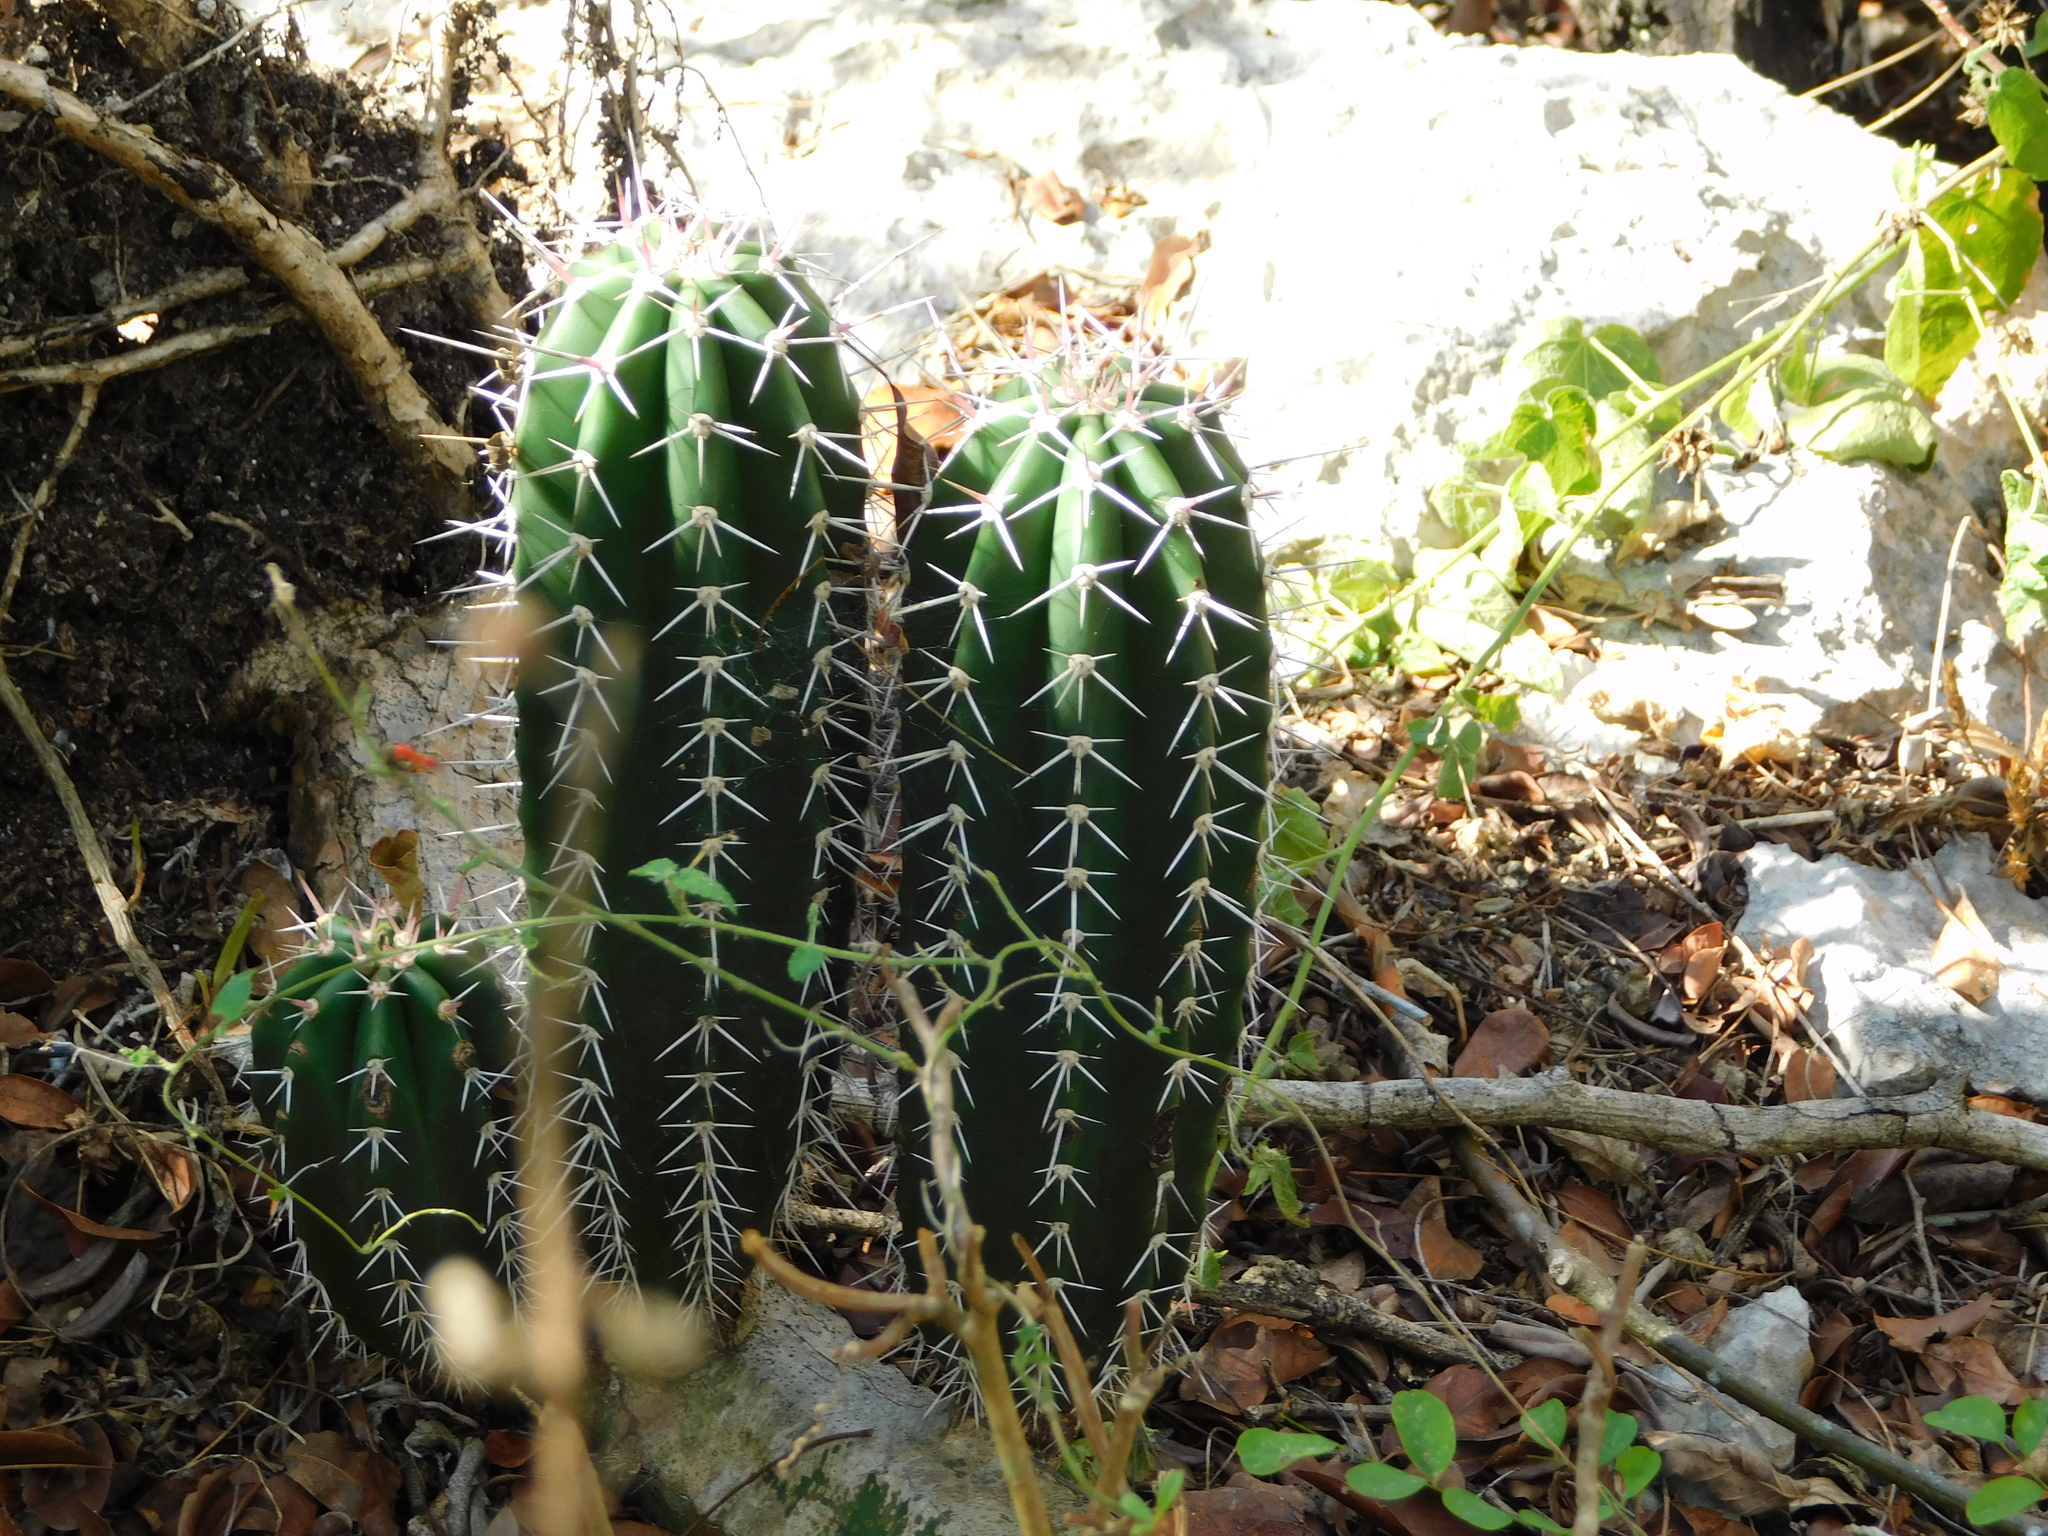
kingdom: Plantae
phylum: Tracheophyta
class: Magnoliopsida
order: Caryophyllales
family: Cactaceae
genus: Stenocereus
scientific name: Stenocereus pruinosus
